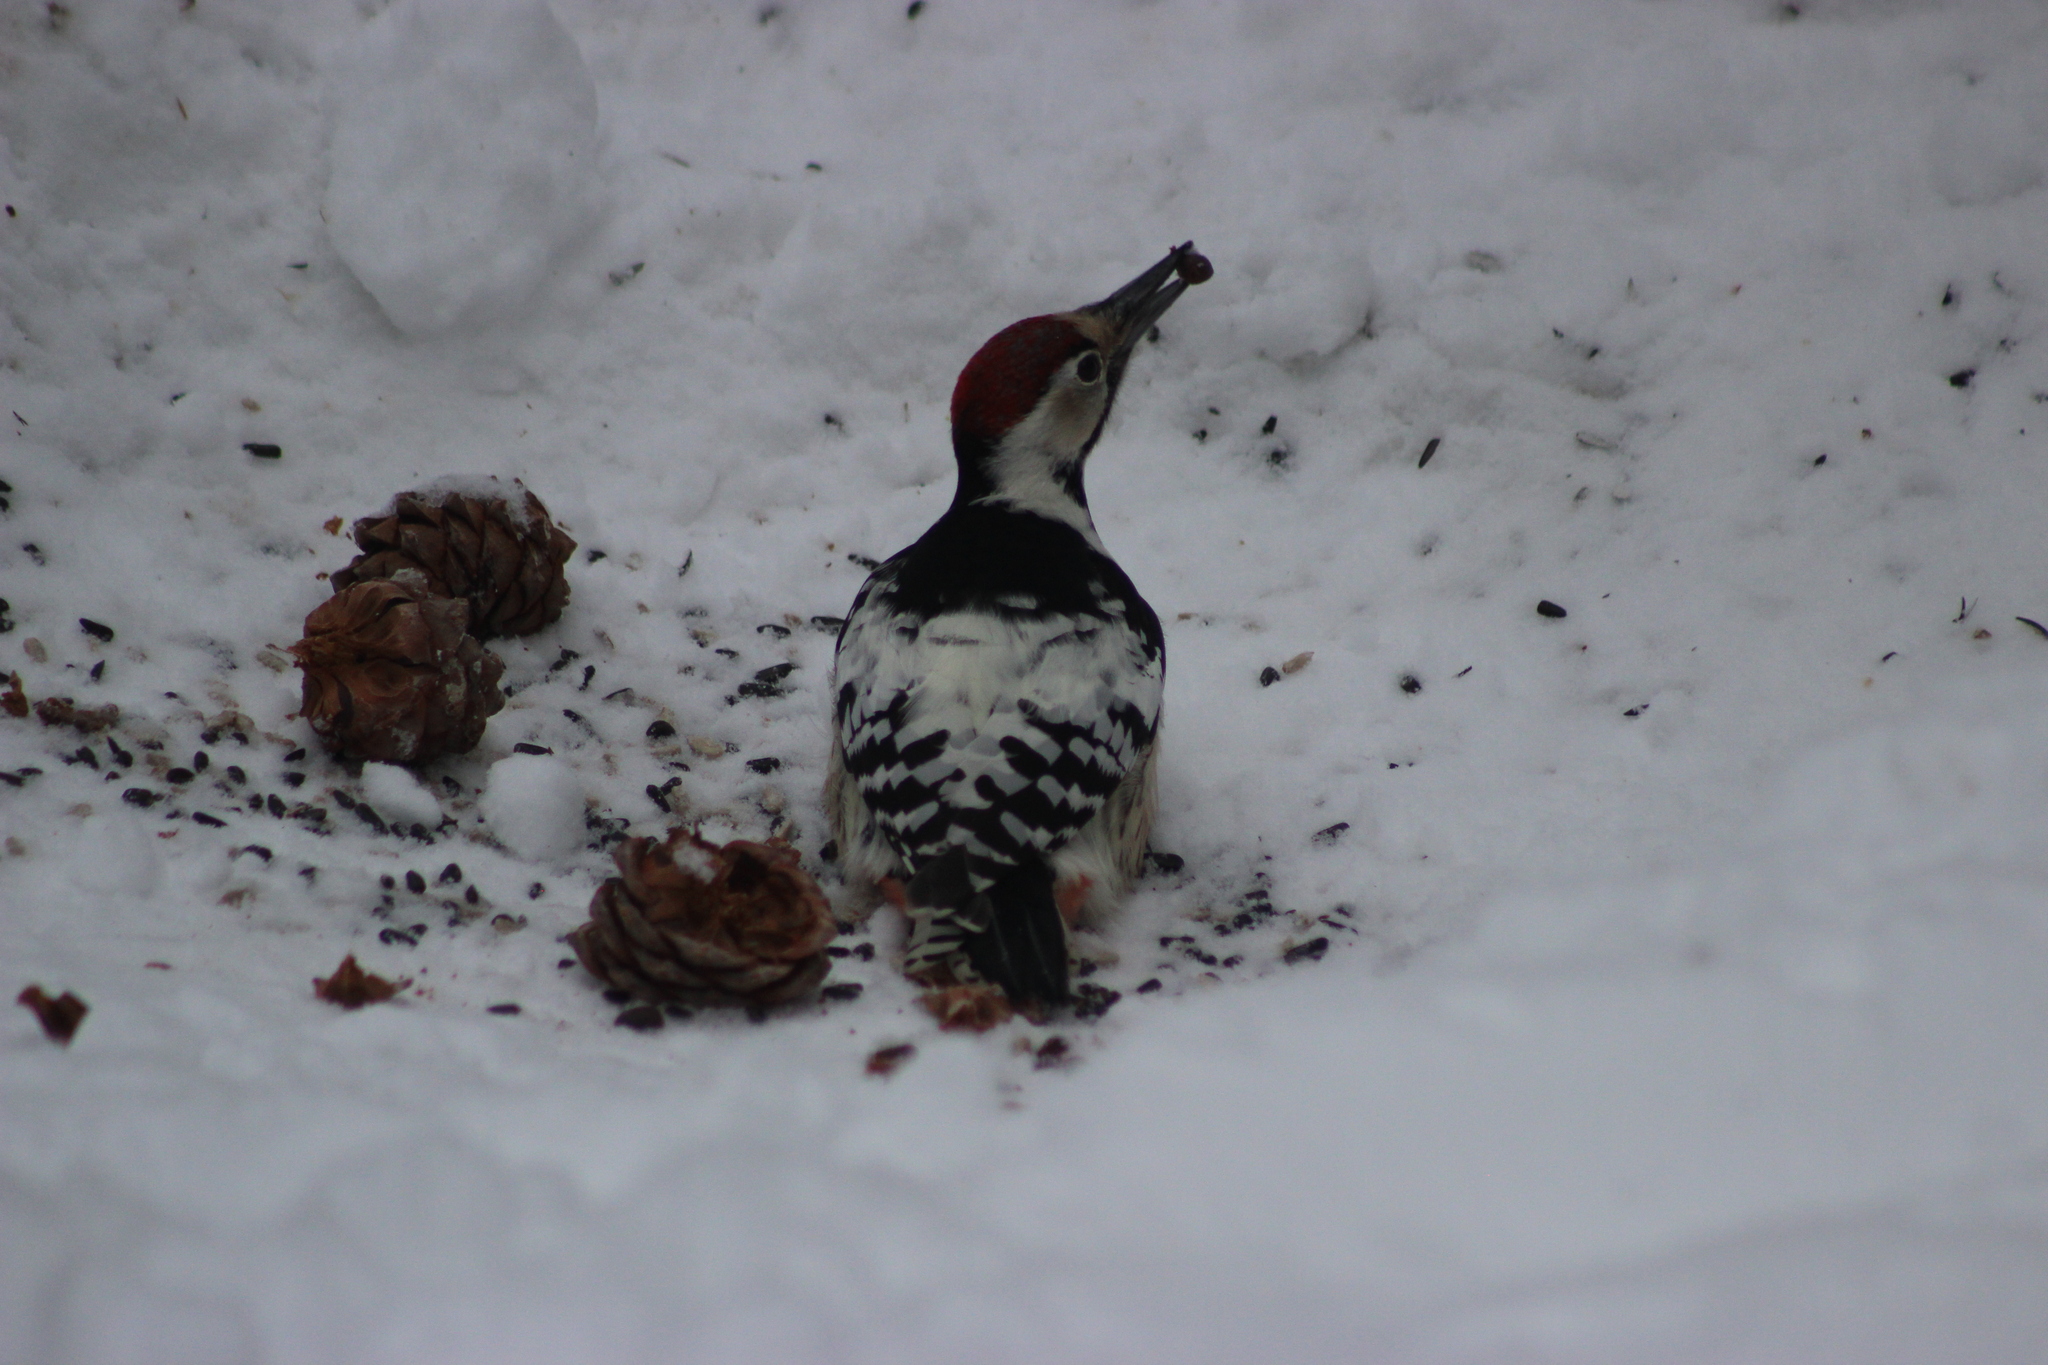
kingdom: Animalia
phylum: Chordata
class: Aves
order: Piciformes
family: Picidae
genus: Dendrocopos
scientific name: Dendrocopos leucotos
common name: White-backed woodpecker
